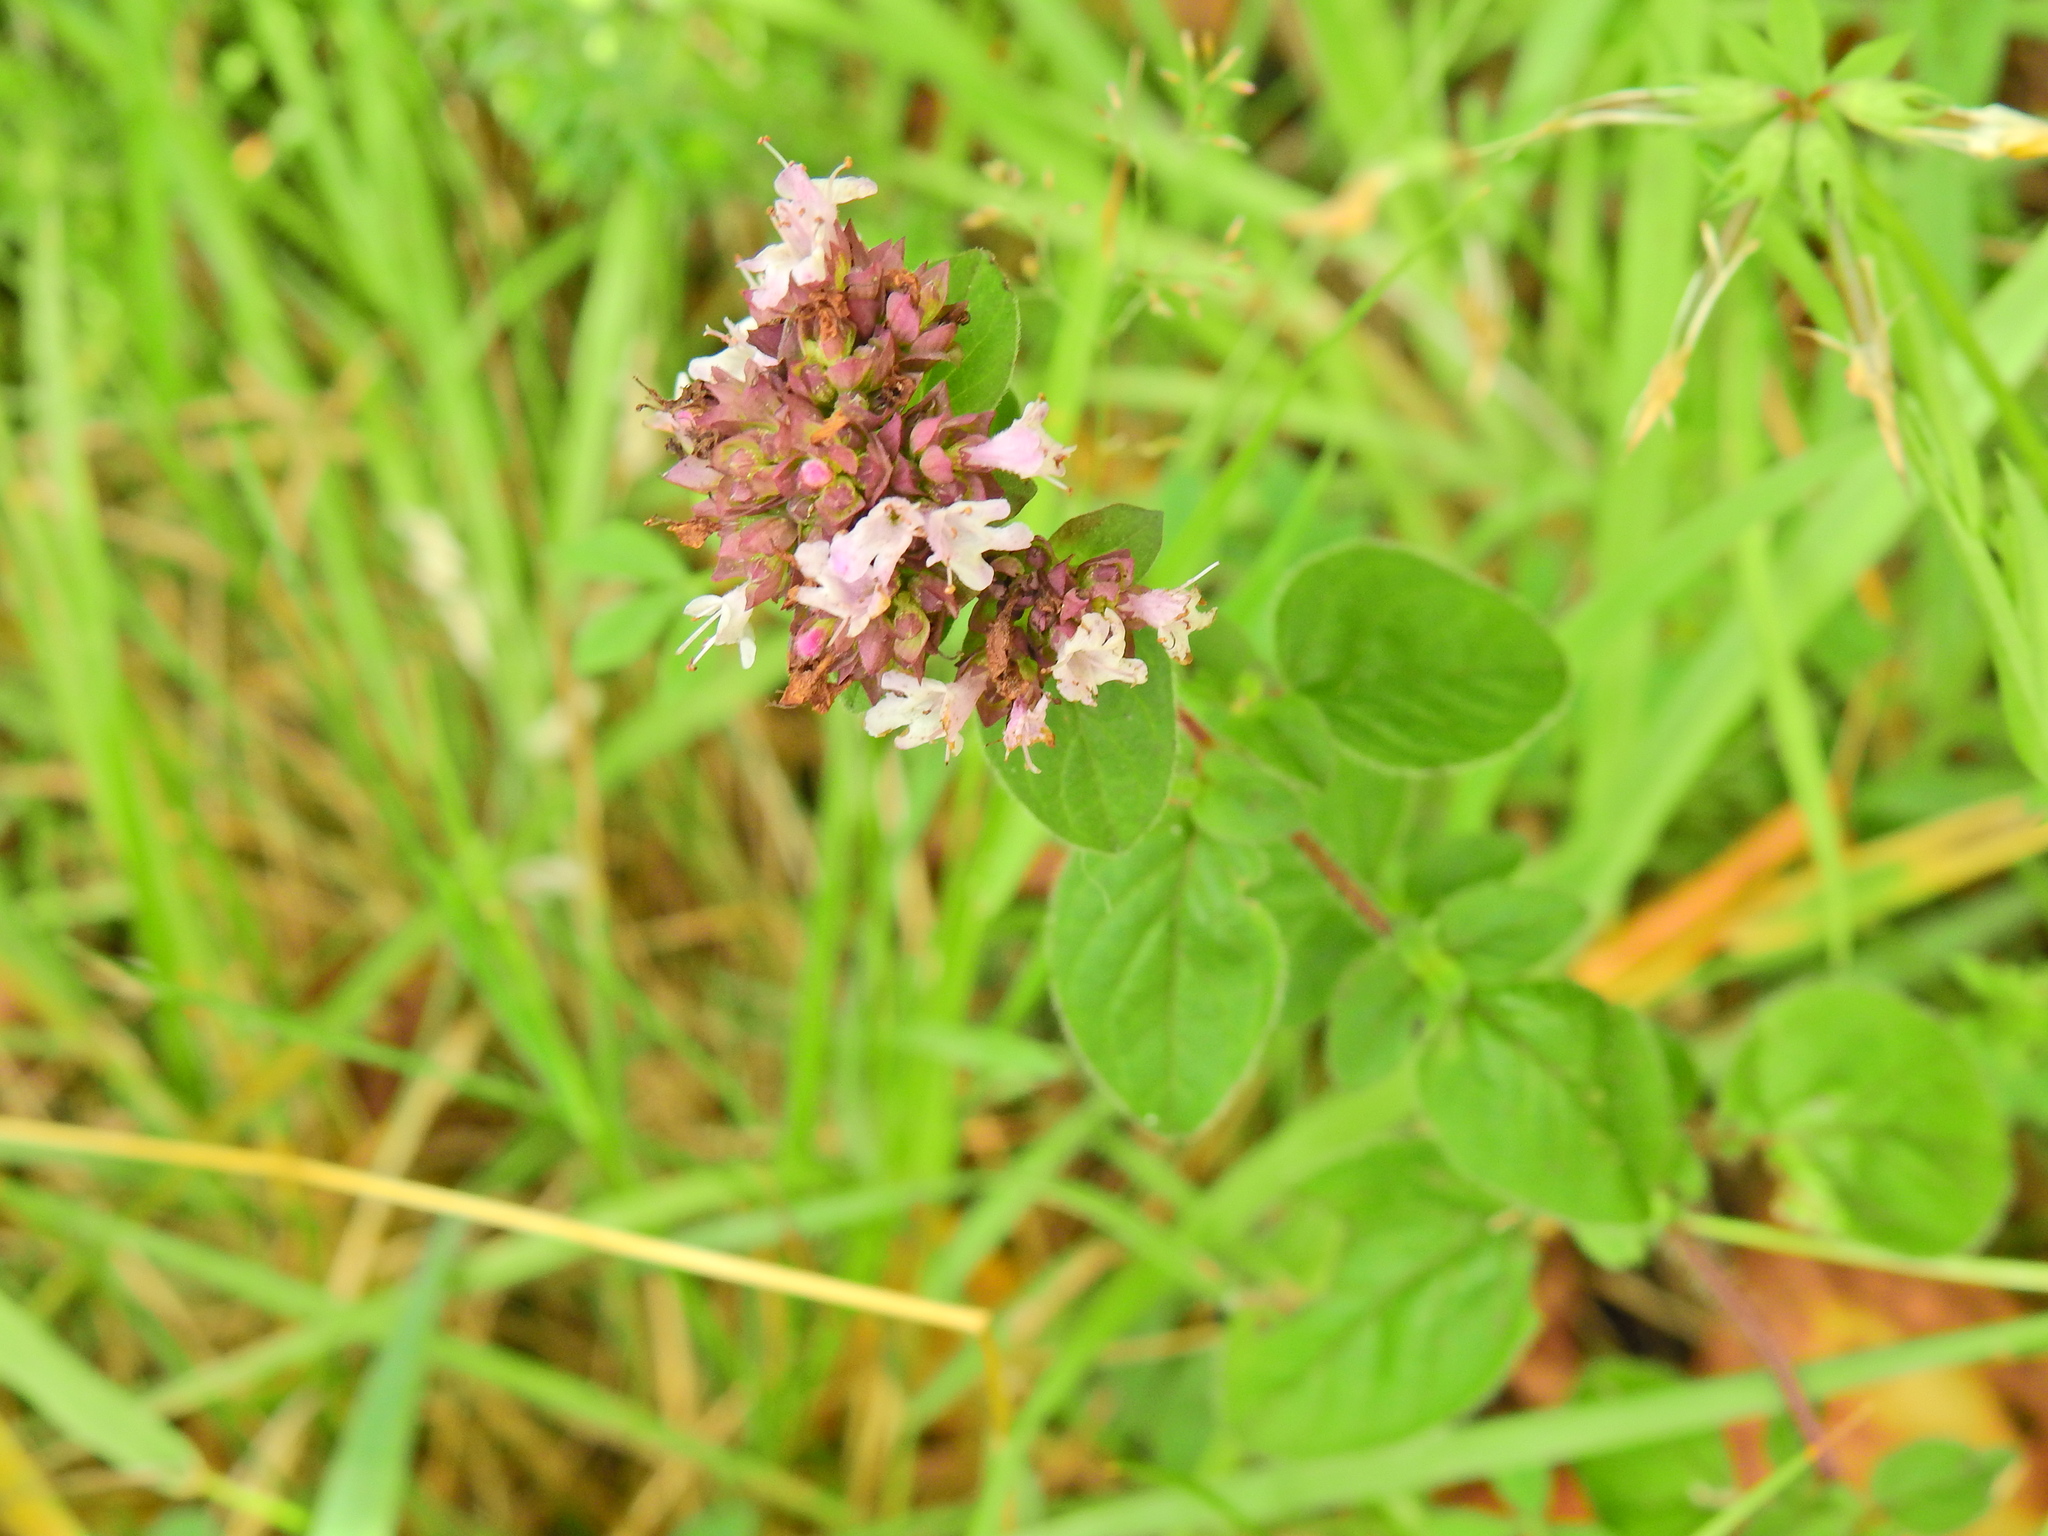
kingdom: Plantae
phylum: Tracheophyta
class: Magnoliopsida
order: Lamiales
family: Lamiaceae
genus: Origanum
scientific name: Origanum vulgare
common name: Wild marjoram
